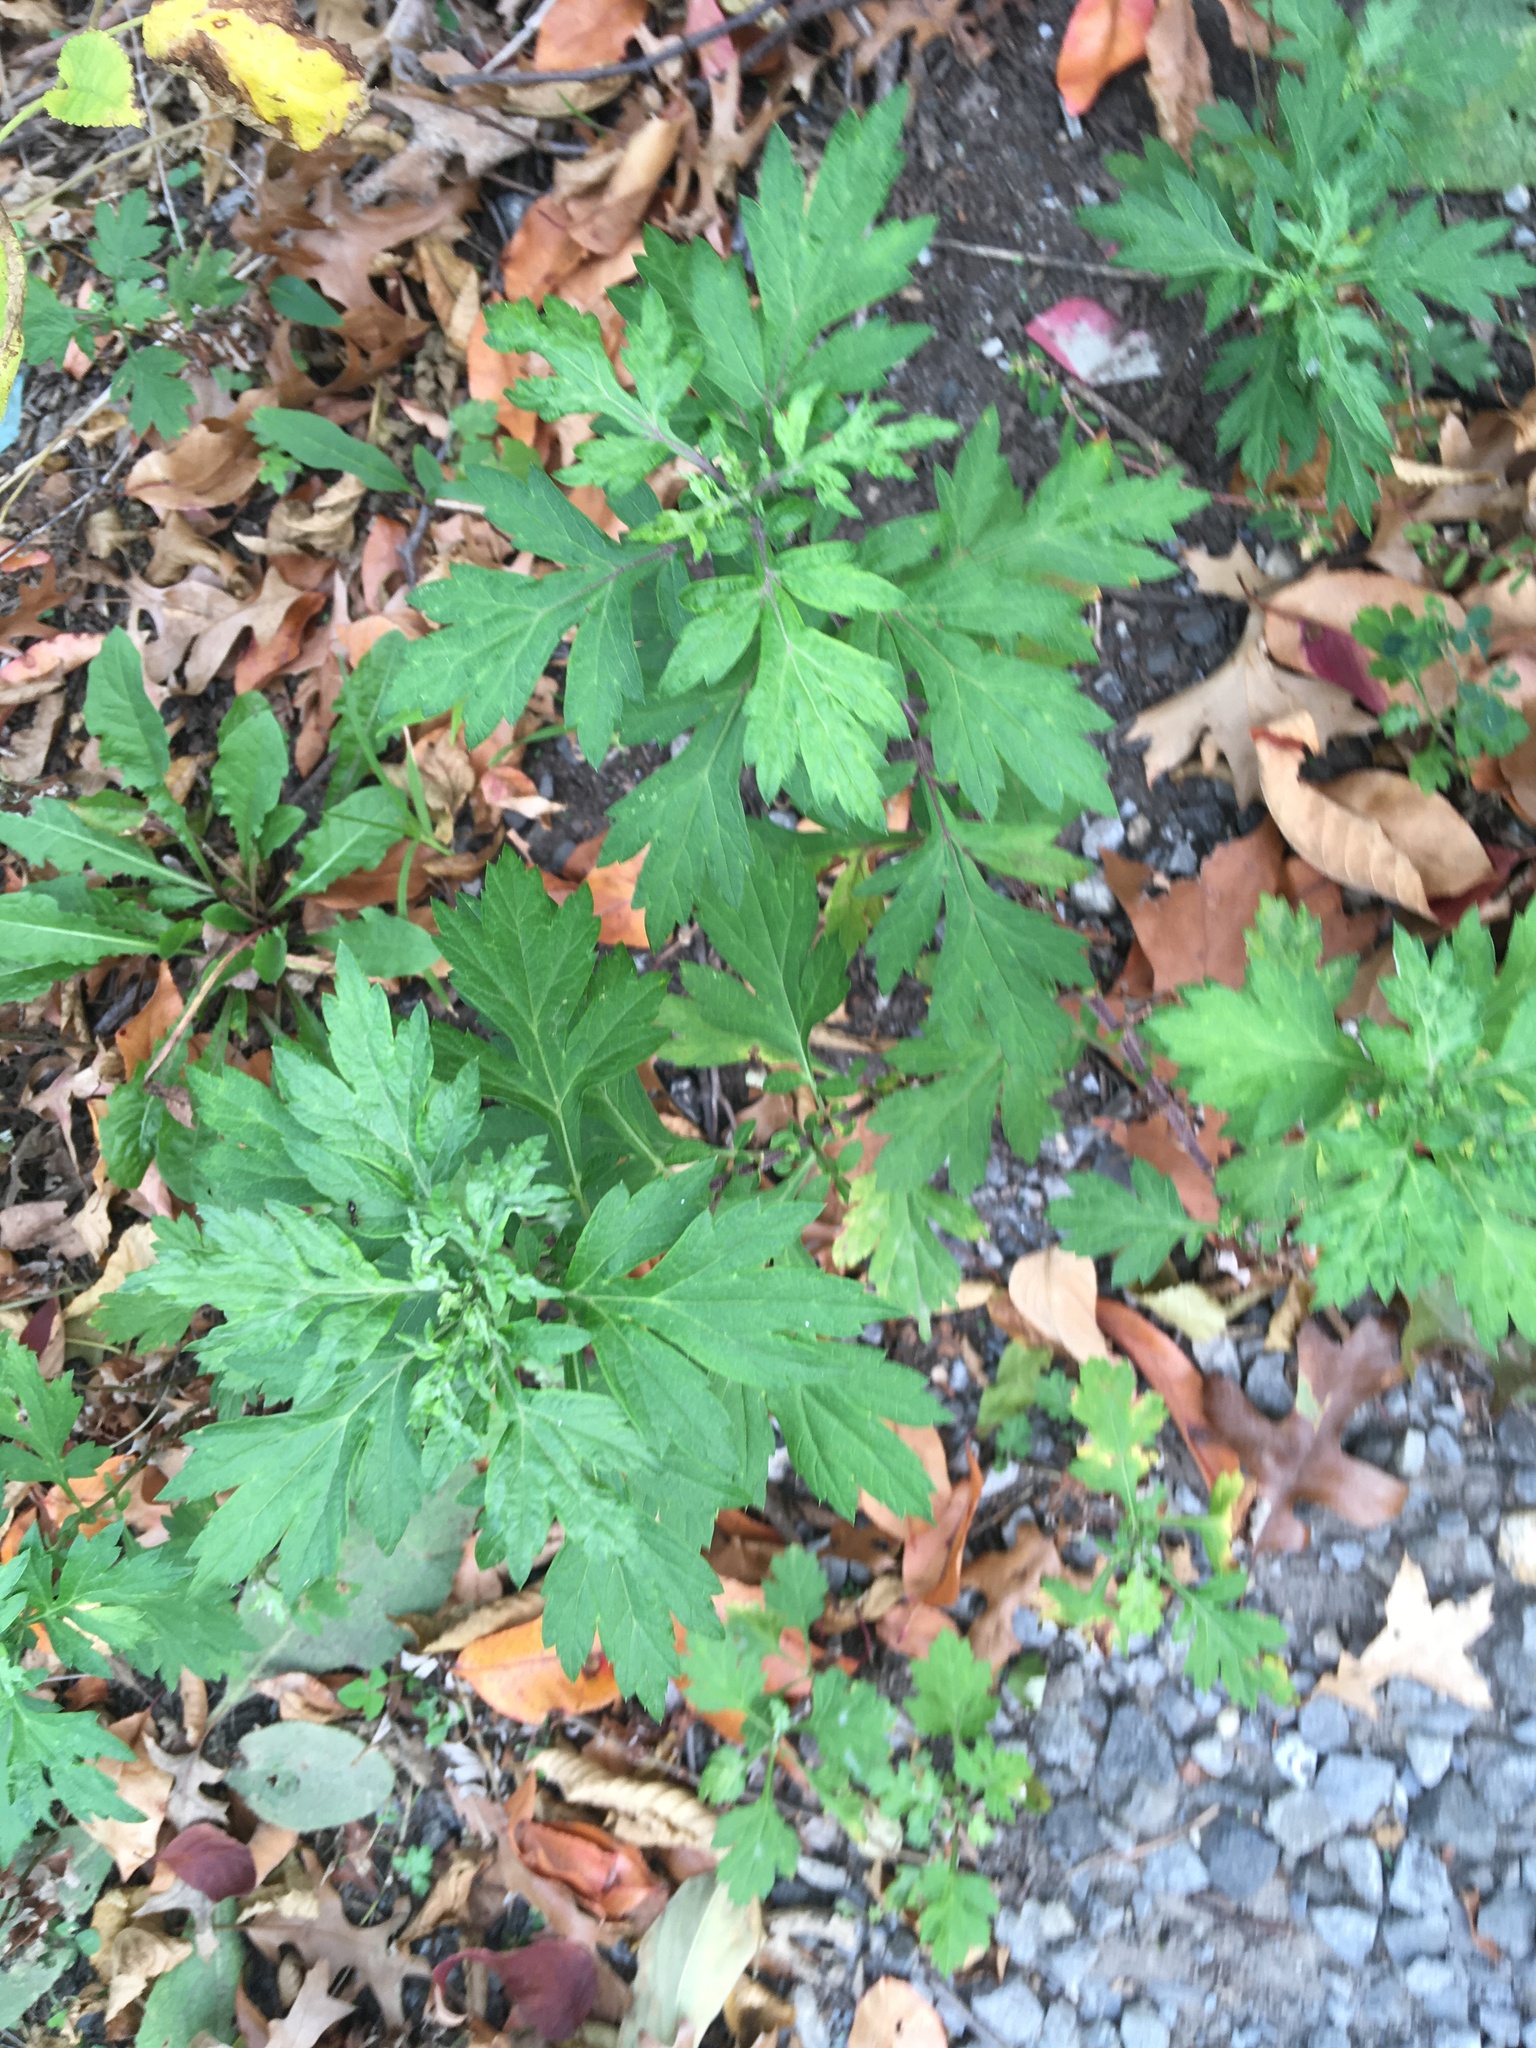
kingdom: Plantae
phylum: Tracheophyta
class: Magnoliopsida
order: Asterales
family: Asteraceae
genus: Artemisia
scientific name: Artemisia vulgaris
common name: Mugwort
